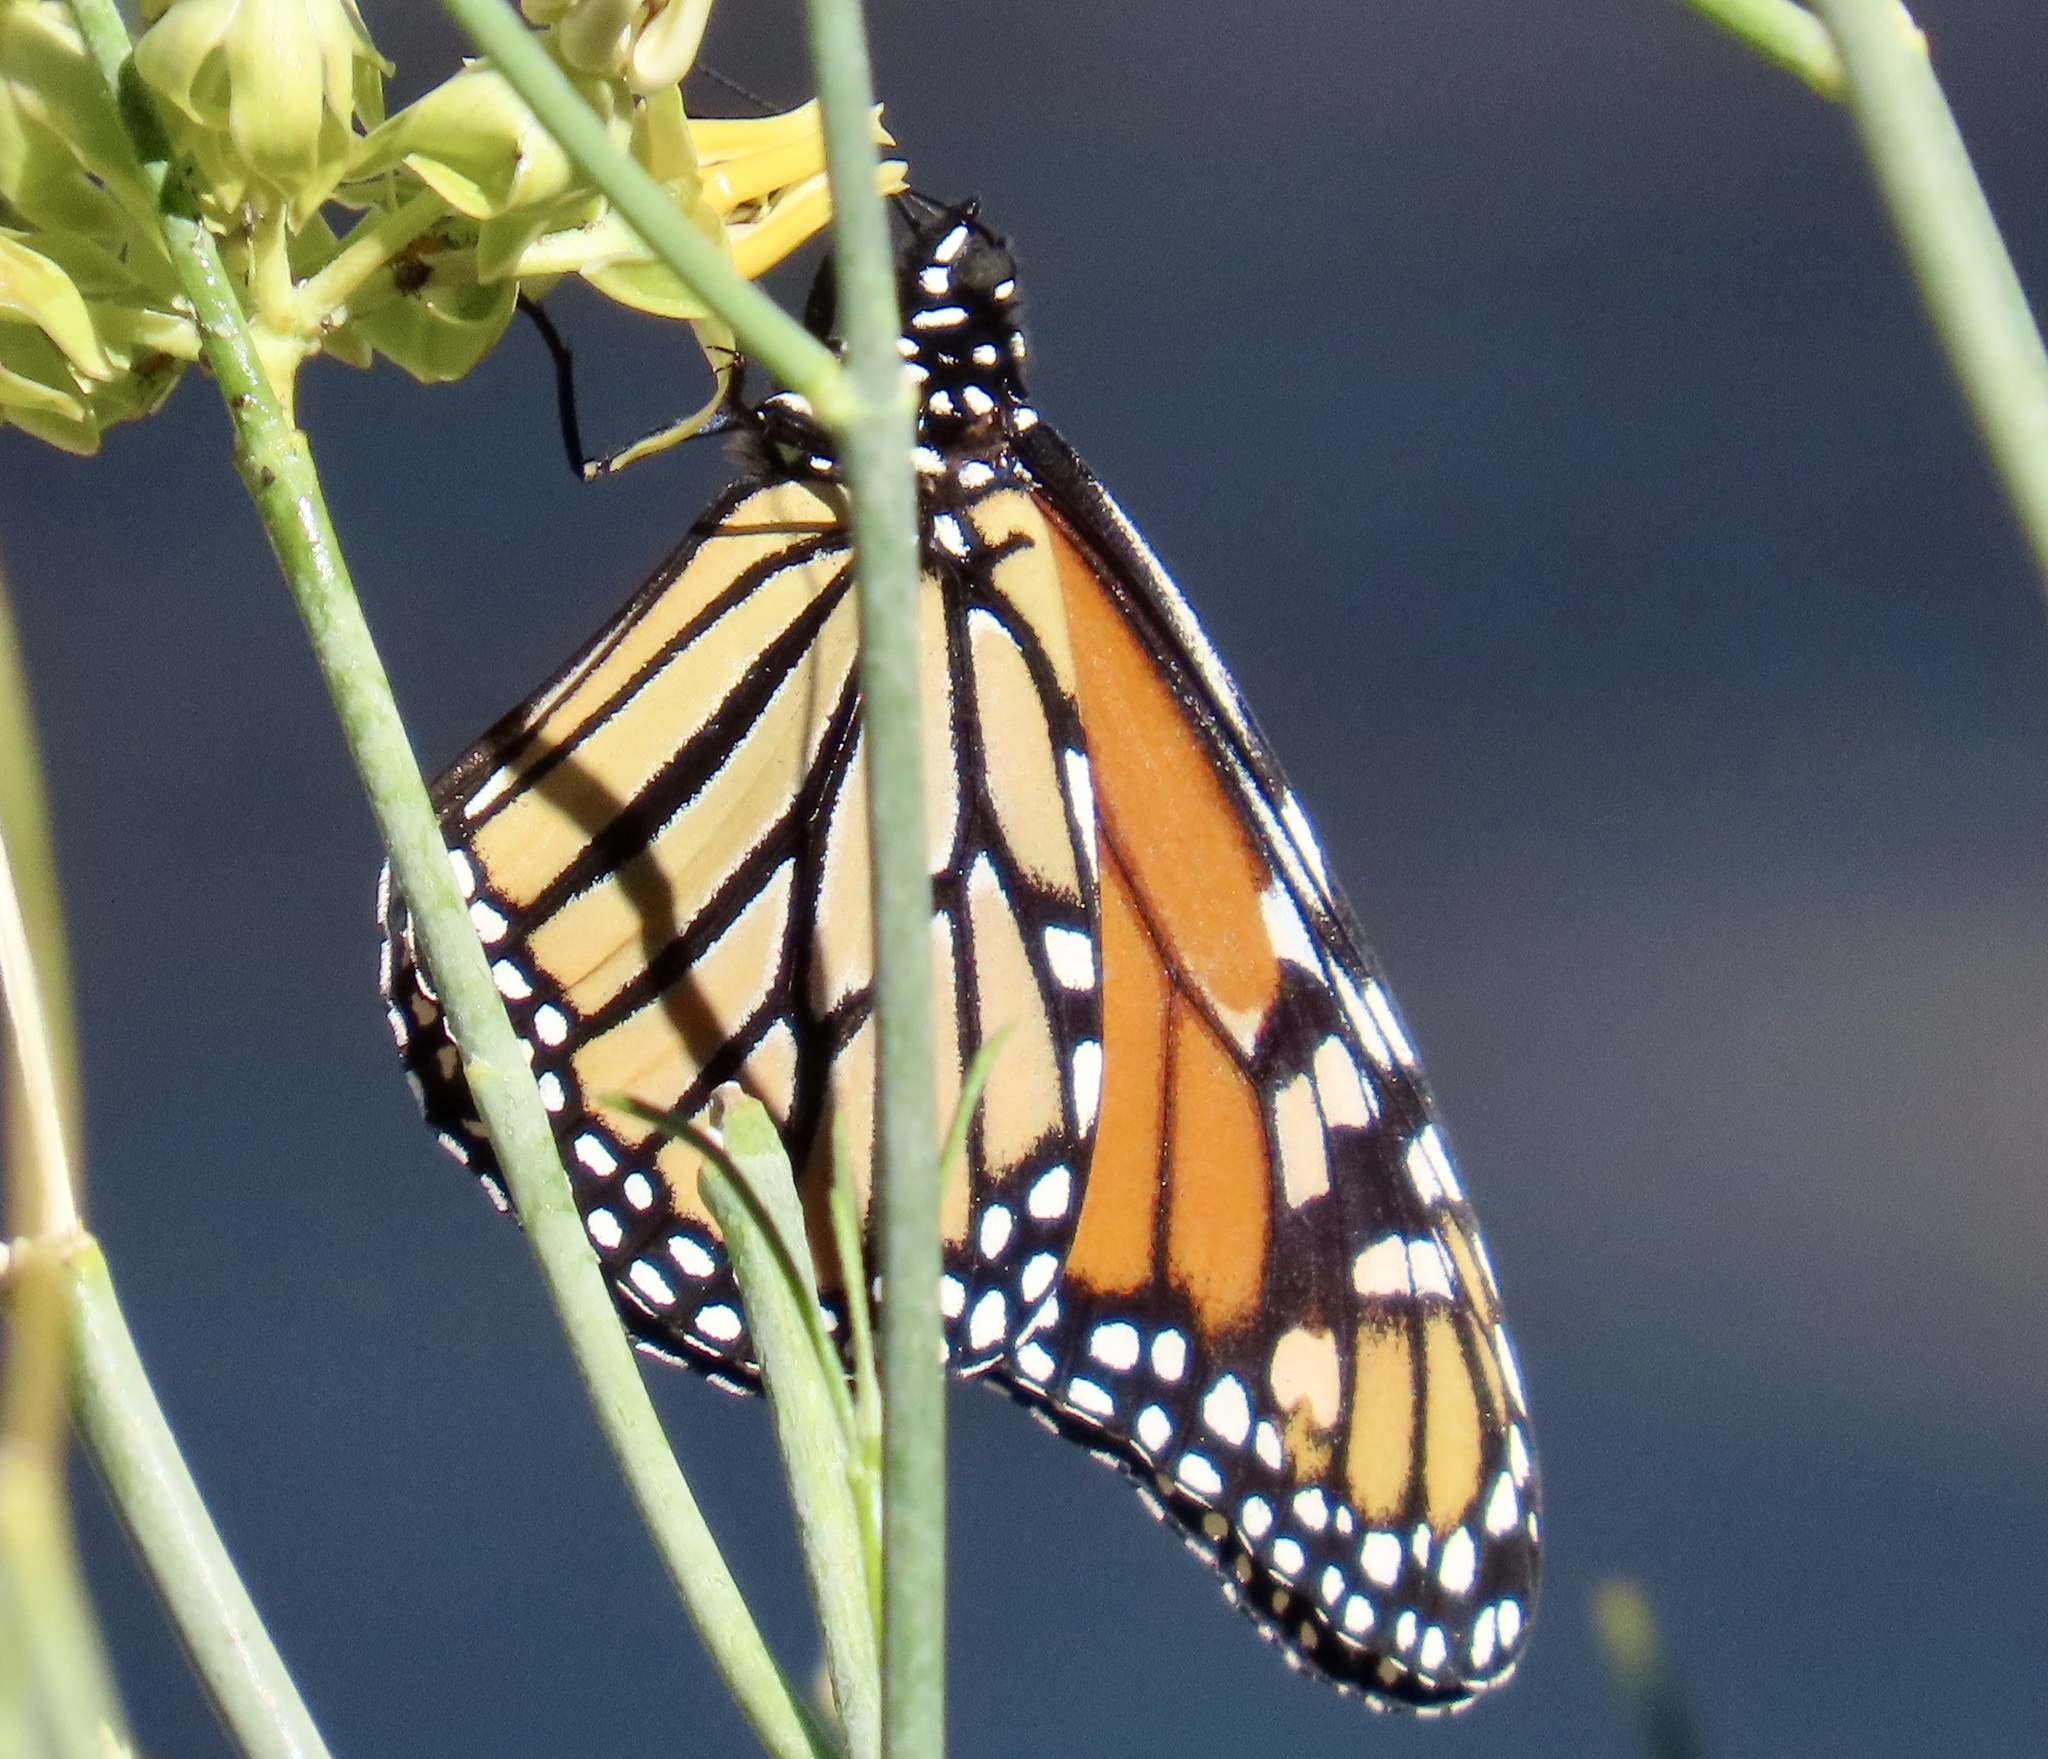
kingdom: Animalia
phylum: Arthropoda
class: Insecta
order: Lepidoptera
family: Nymphalidae
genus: Danaus
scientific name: Danaus plexippus
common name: Monarch
